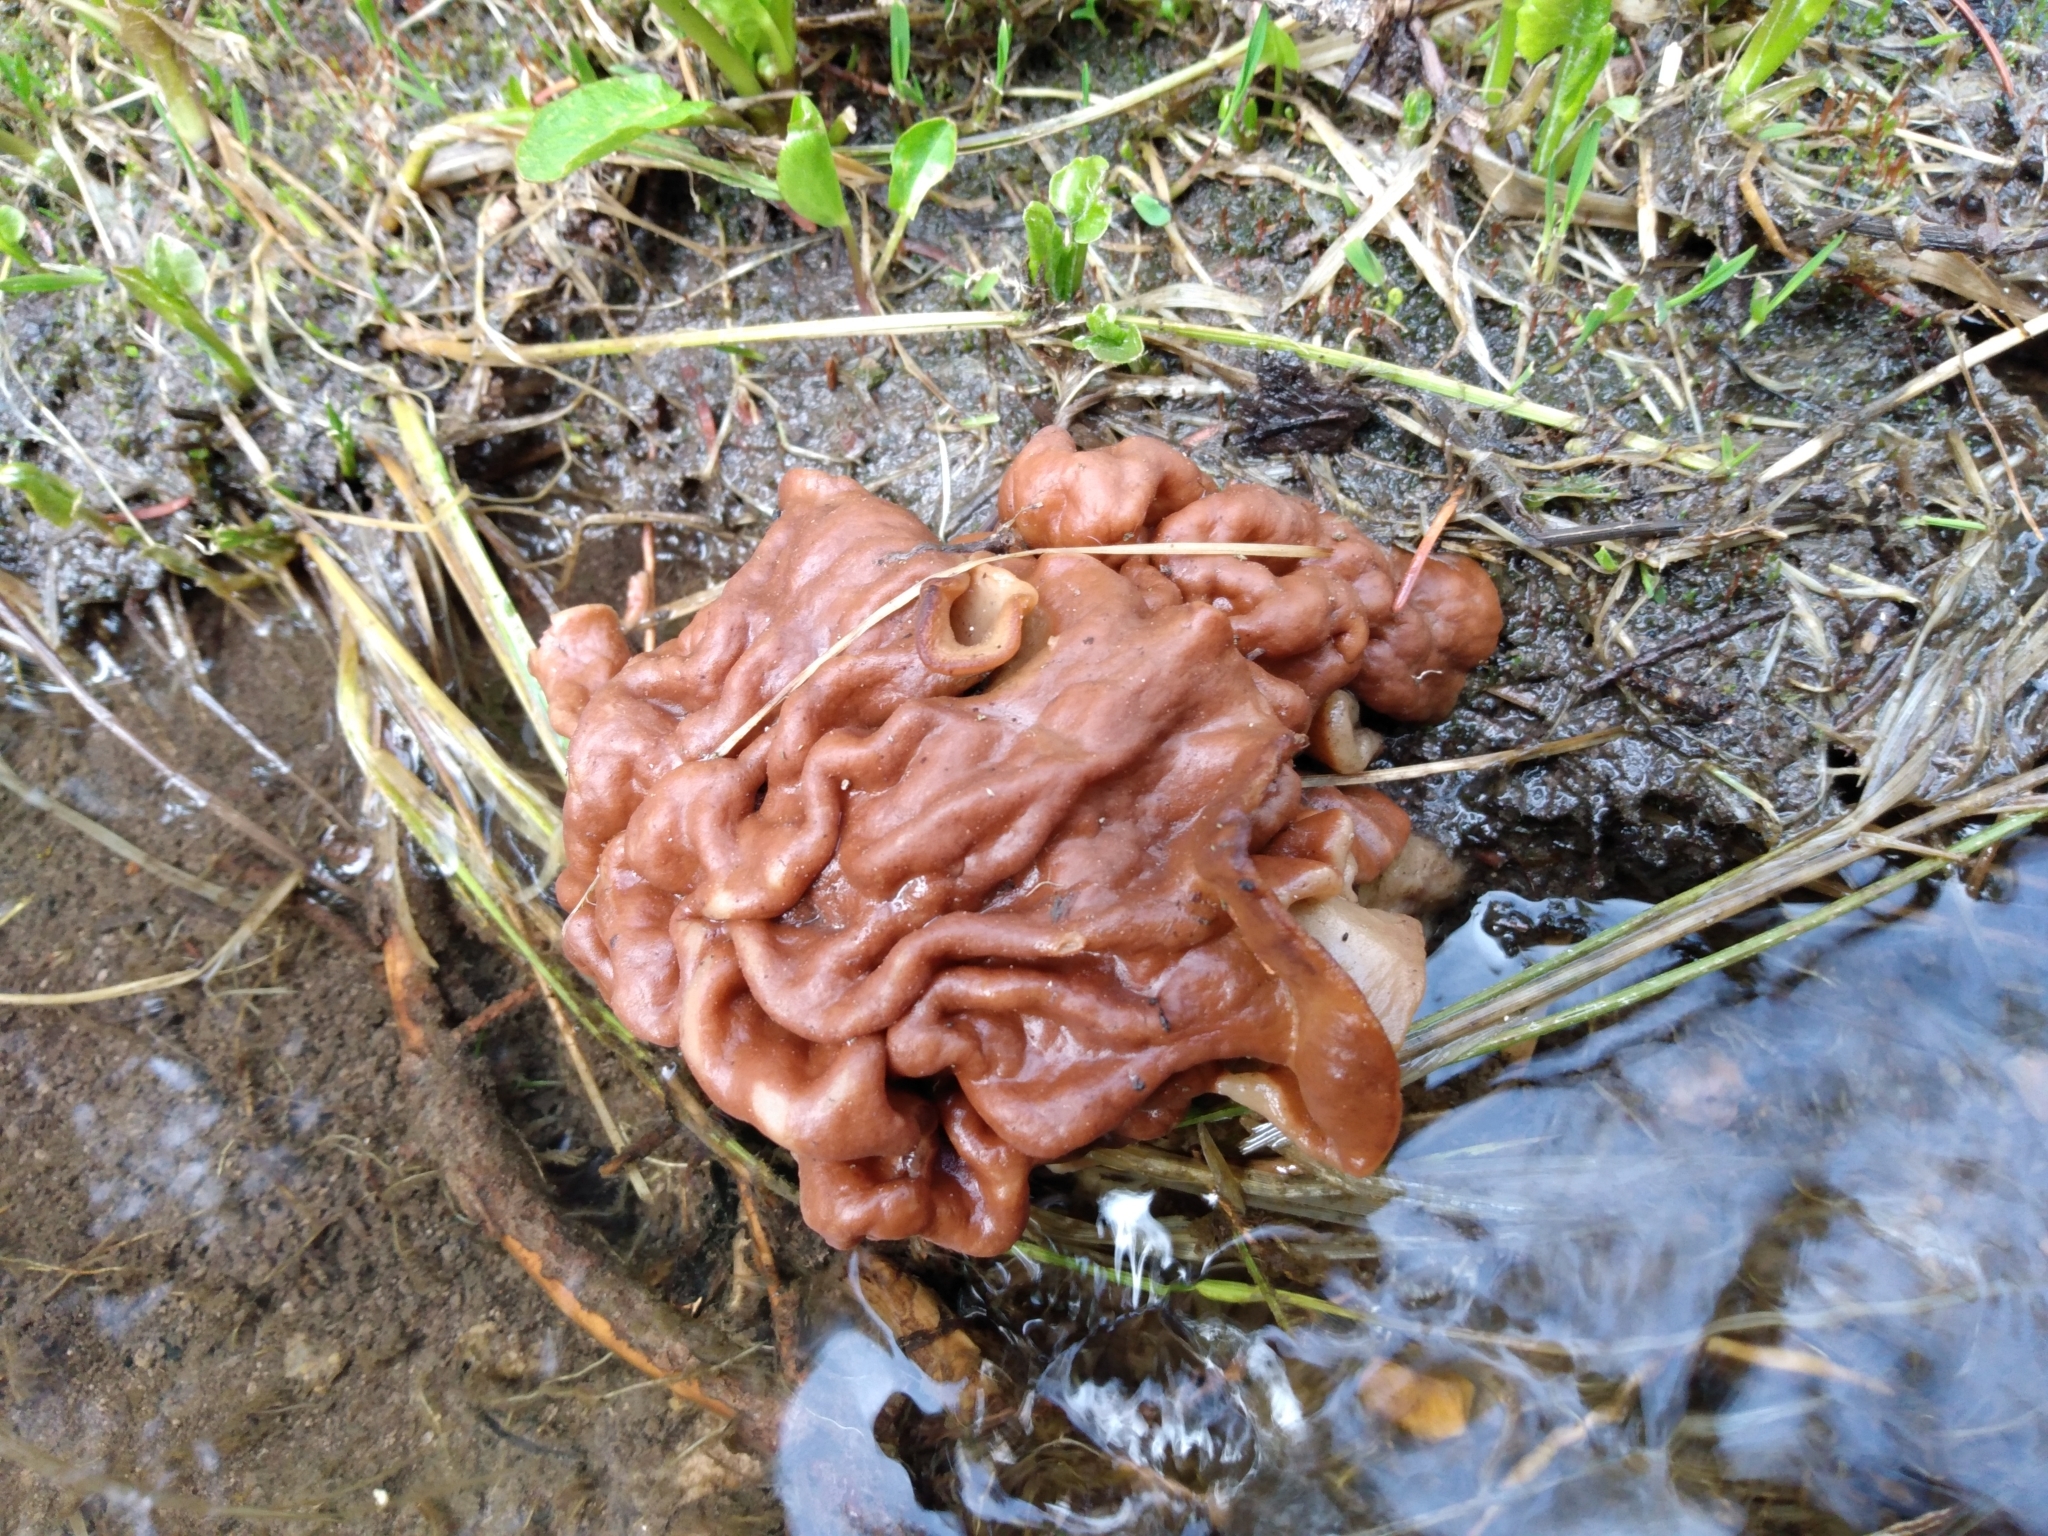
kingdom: Fungi
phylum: Ascomycota
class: Pezizomycetes
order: Pezizales
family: Discinaceae
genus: Discina
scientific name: Discina montana
